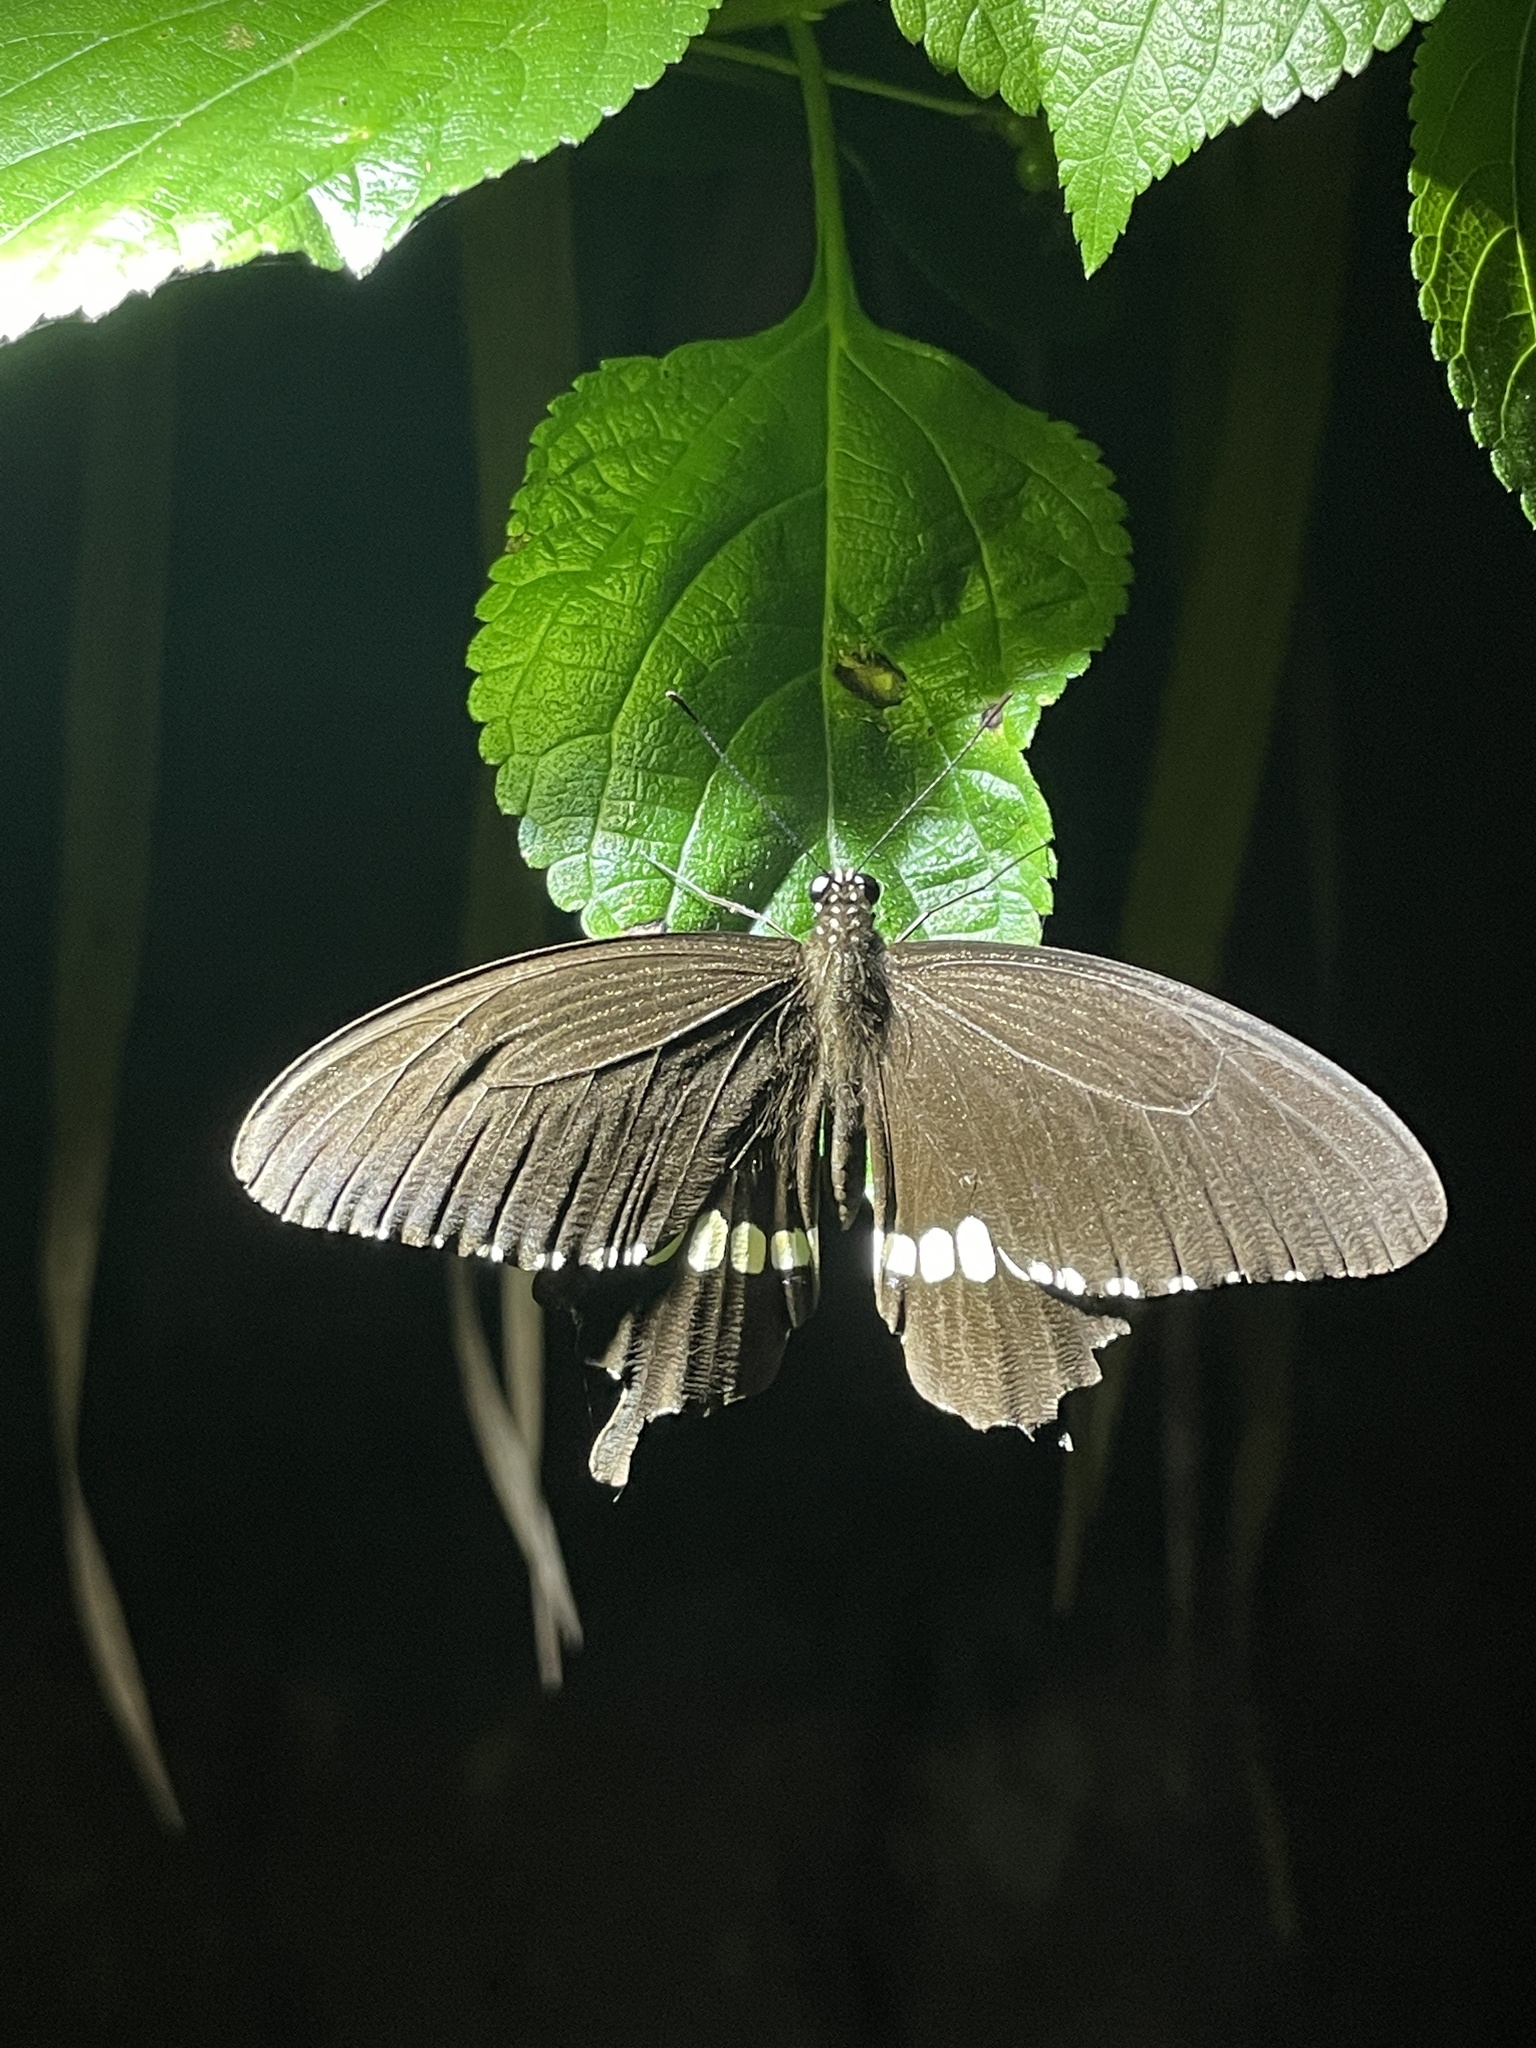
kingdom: Animalia
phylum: Arthropoda
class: Insecta
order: Lepidoptera
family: Papilionidae
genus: Papilio
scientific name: Papilio polytes
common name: Common mormon
